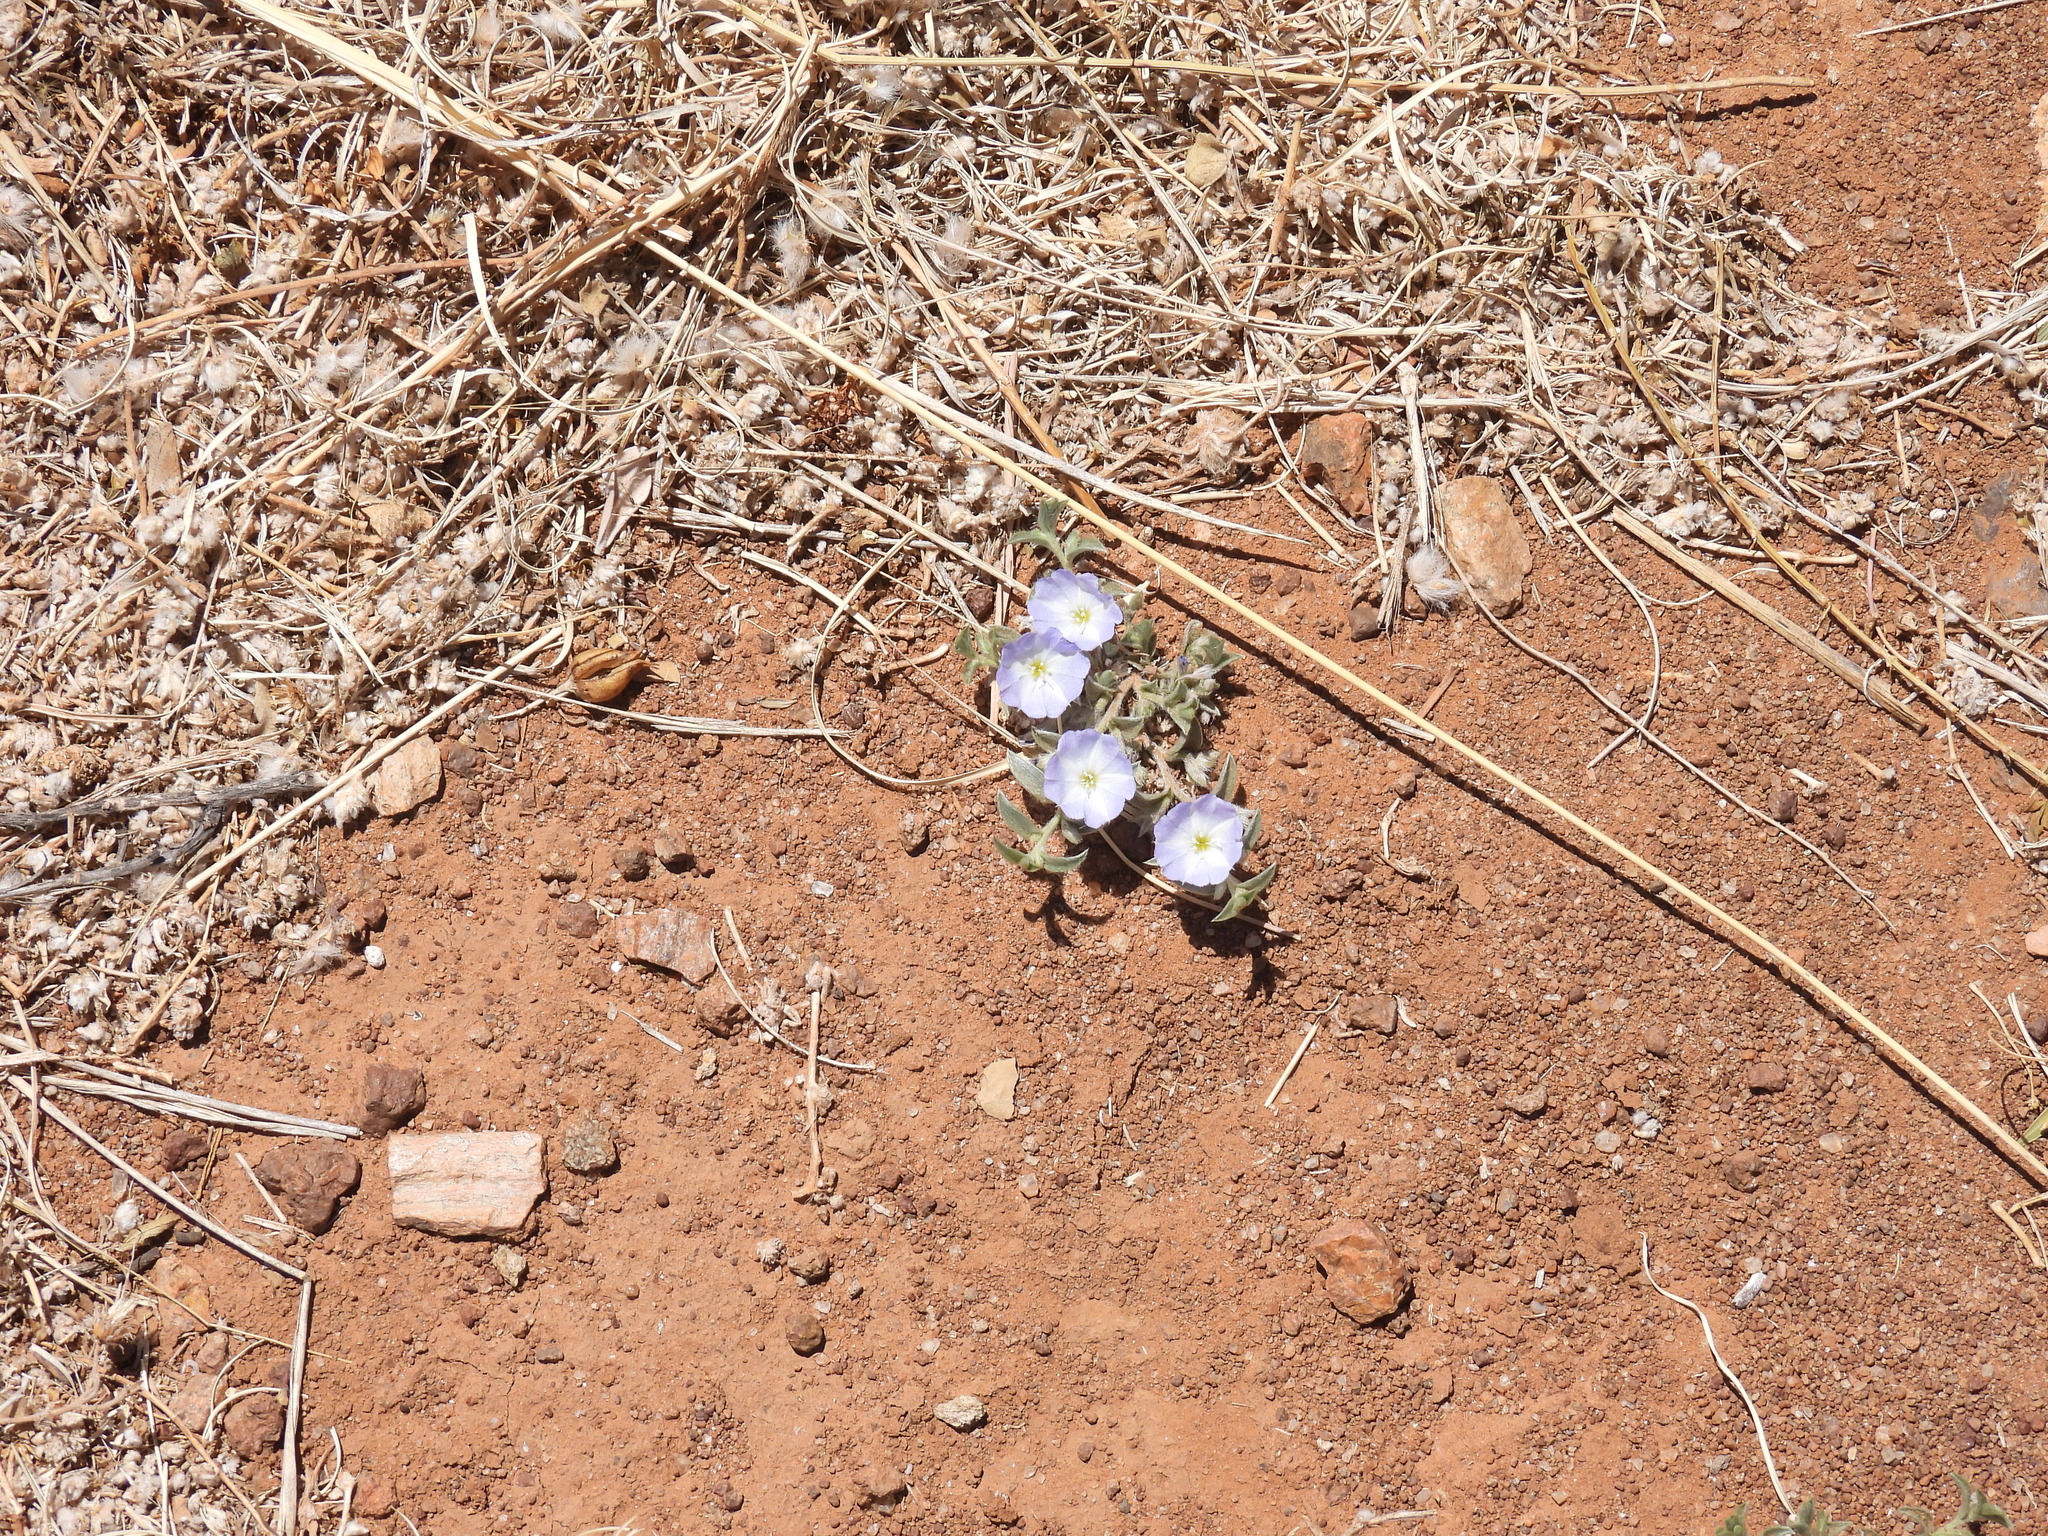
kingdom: Plantae
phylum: Tracheophyta
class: Magnoliopsida
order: Solanales
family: Convolvulaceae
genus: Evolvulus
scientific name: Evolvulus nuttallianus
